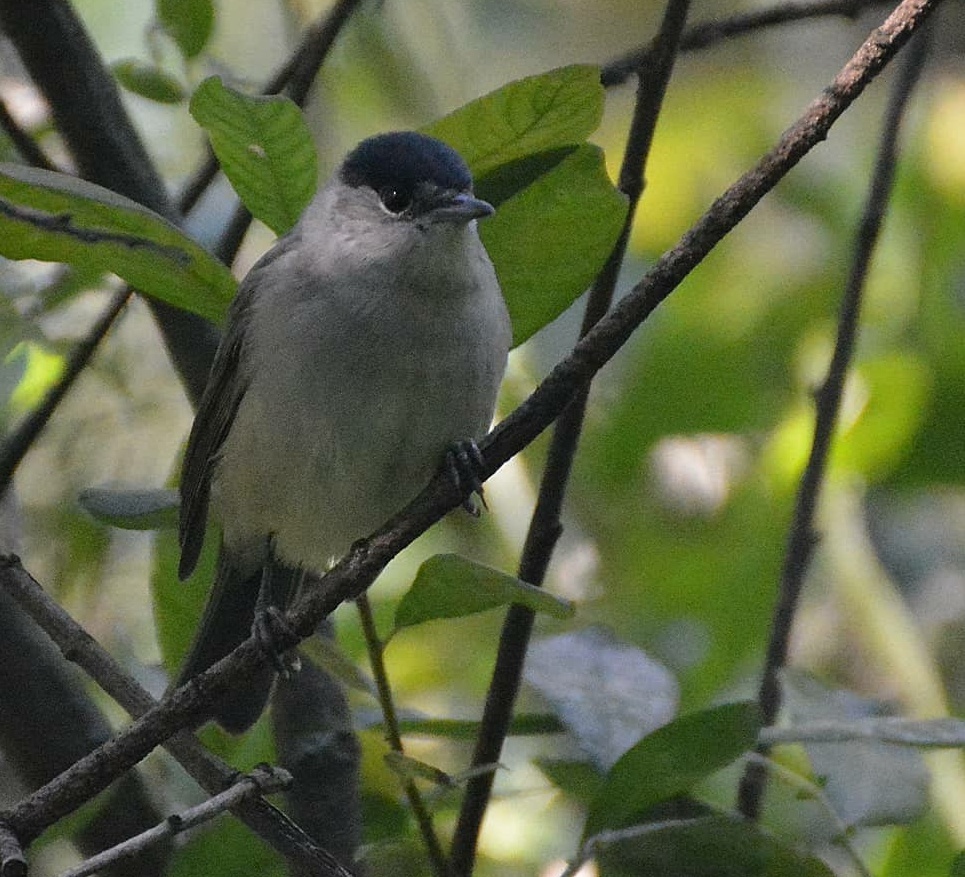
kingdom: Animalia
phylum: Chordata
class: Aves
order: Passeriformes
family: Sylviidae
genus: Sylvia
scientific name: Sylvia atricapilla
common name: Eurasian blackcap
